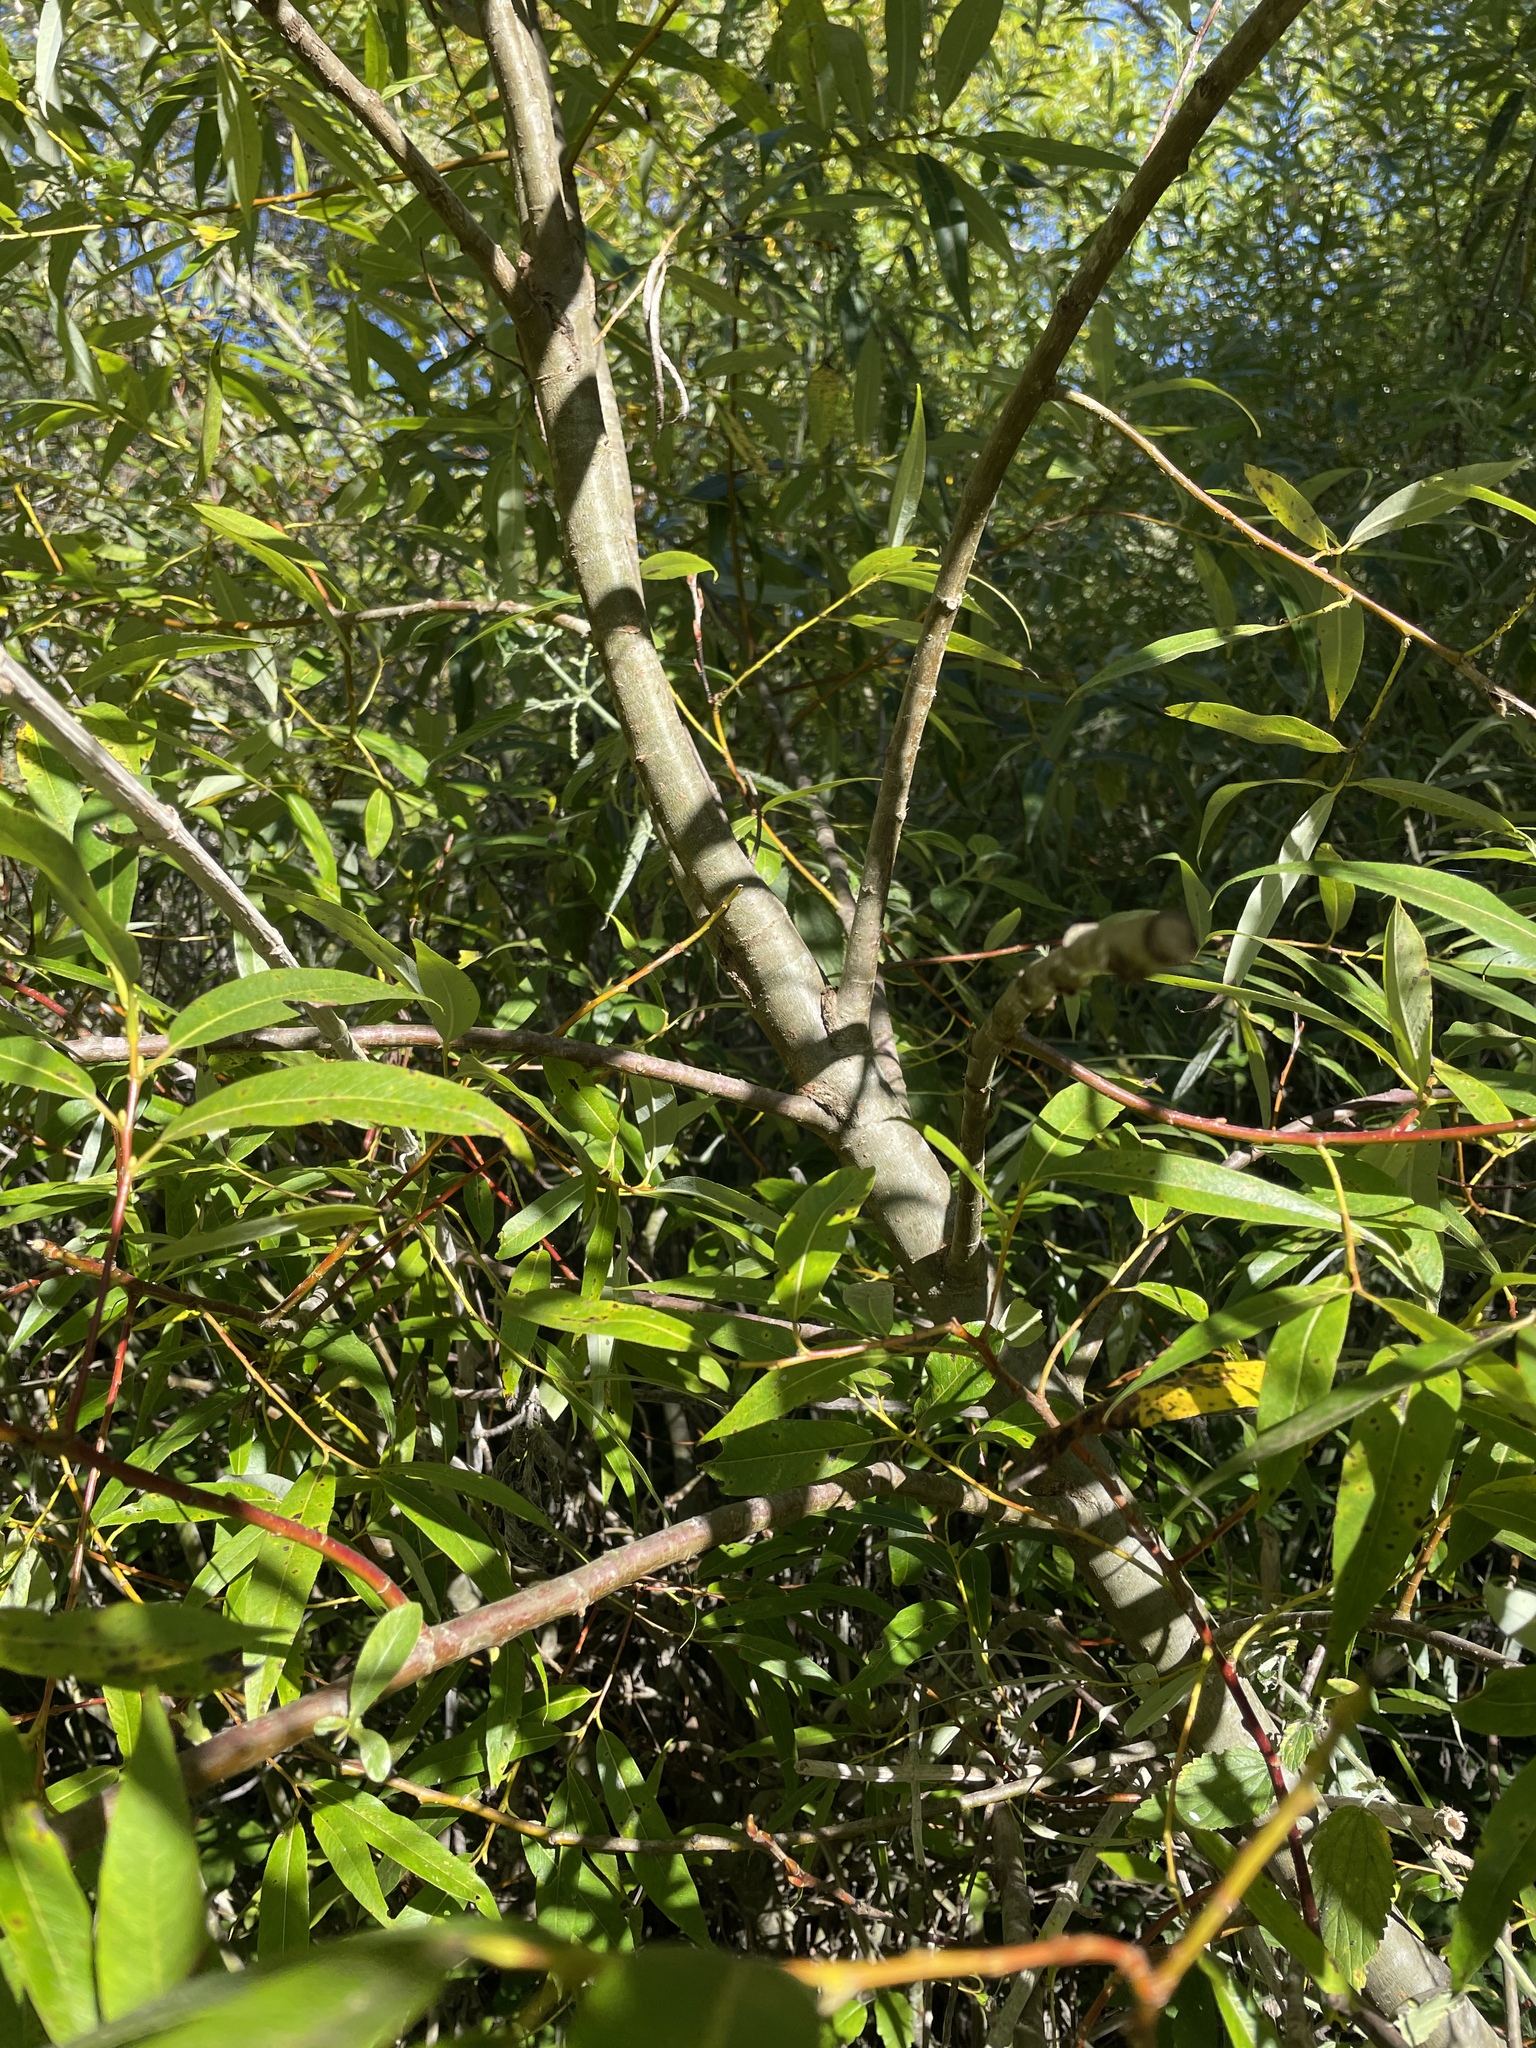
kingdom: Plantae
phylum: Tracheophyta
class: Magnoliopsida
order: Malpighiales
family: Salicaceae
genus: Salix
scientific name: Salix lucida
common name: Shining willow
